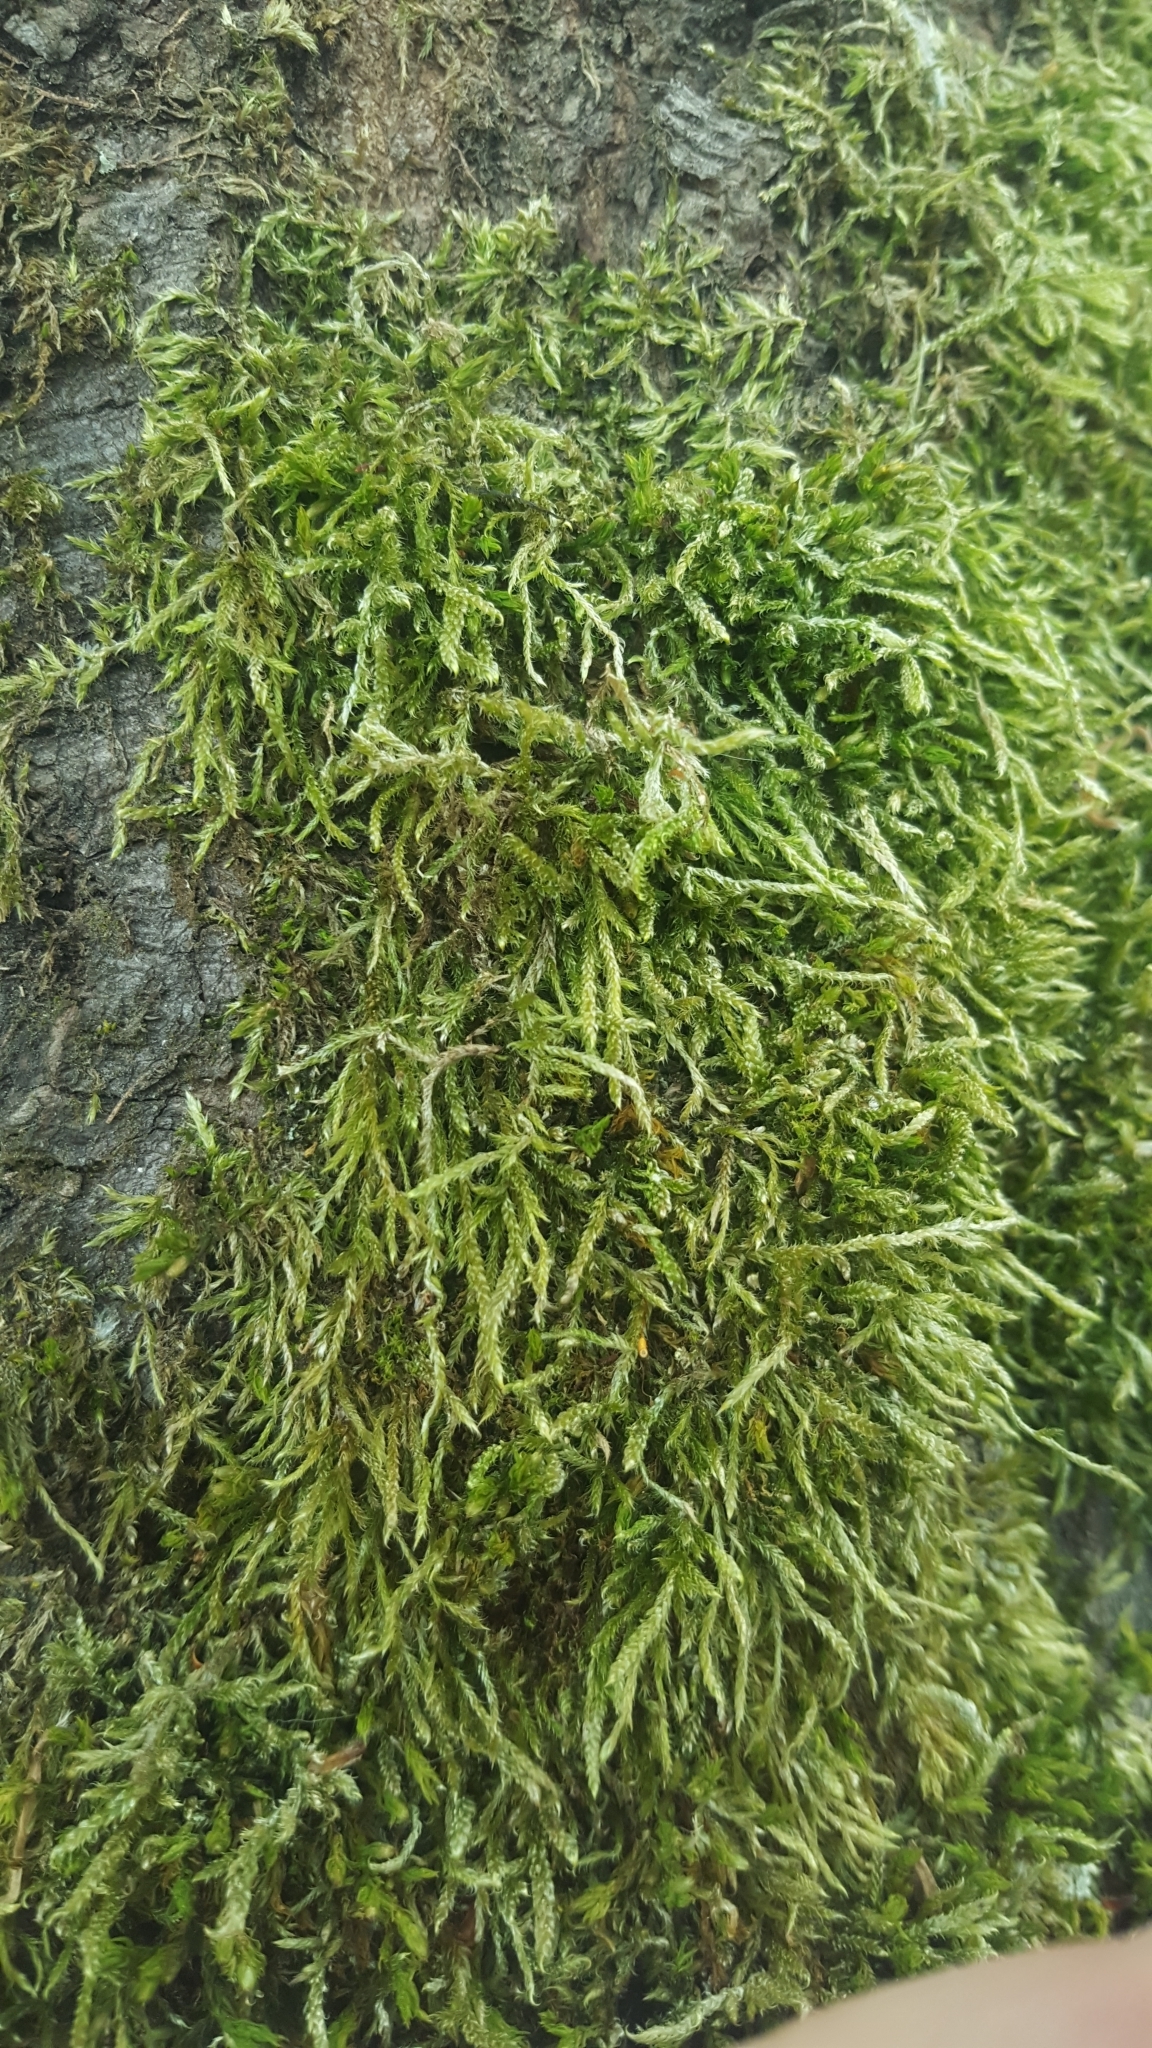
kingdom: Plantae
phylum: Bryophyta
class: Bryopsida
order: Hypnales
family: Hypnaceae
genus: Hypnum
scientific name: Hypnum cupressiforme
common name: Cypress-leaved plait-moss
